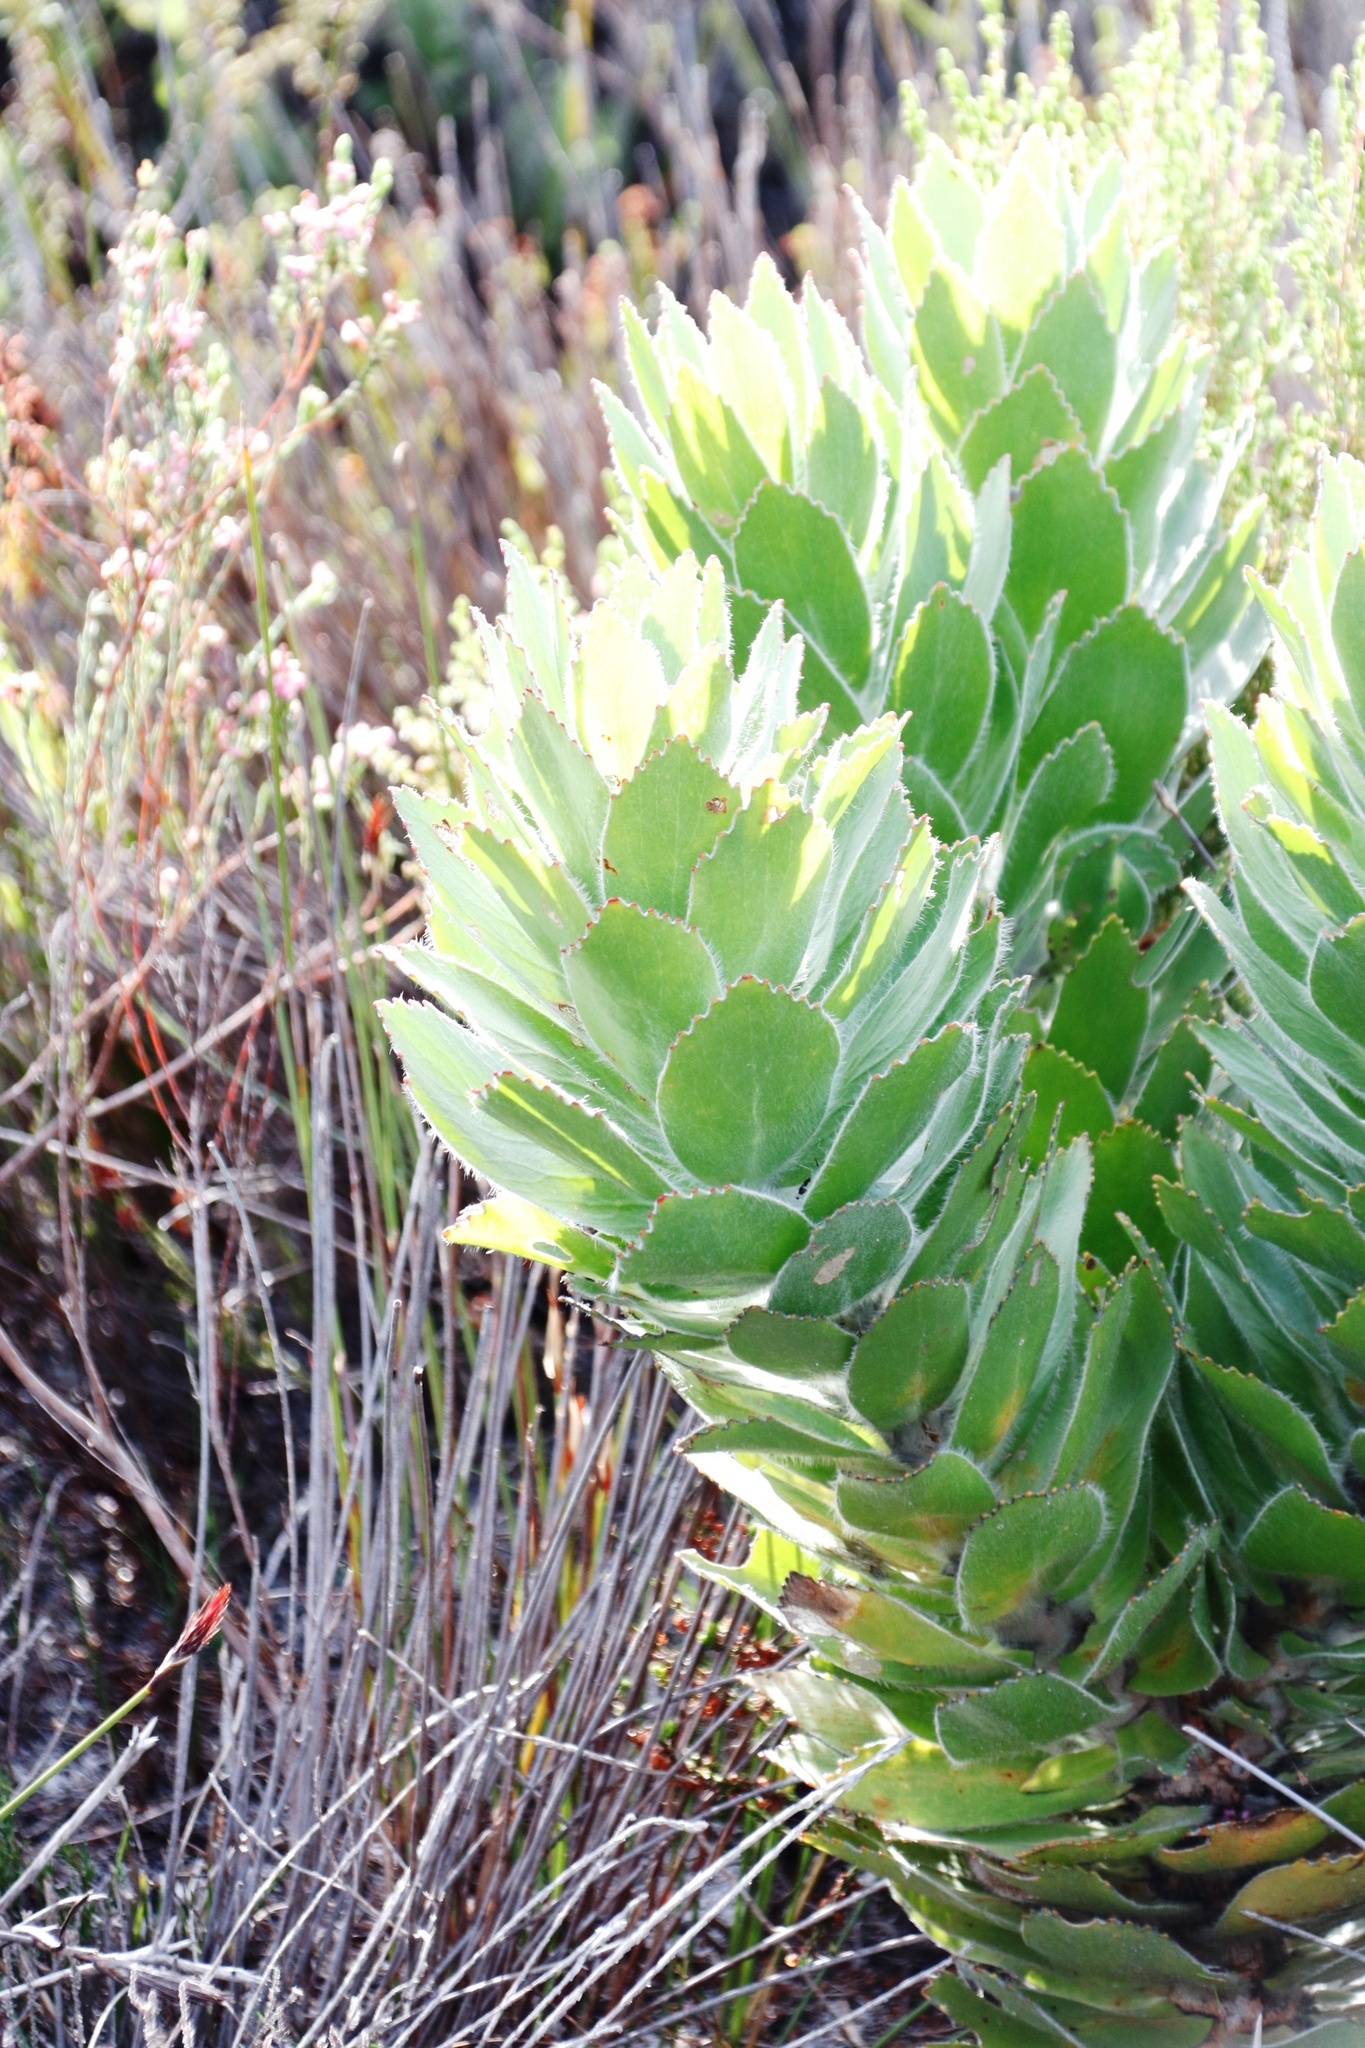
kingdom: Plantae
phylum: Tracheophyta
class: Magnoliopsida
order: Proteales
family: Proteaceae
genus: Leucospermum
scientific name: Leucospermum conocarpodendron
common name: Tree pincushion
